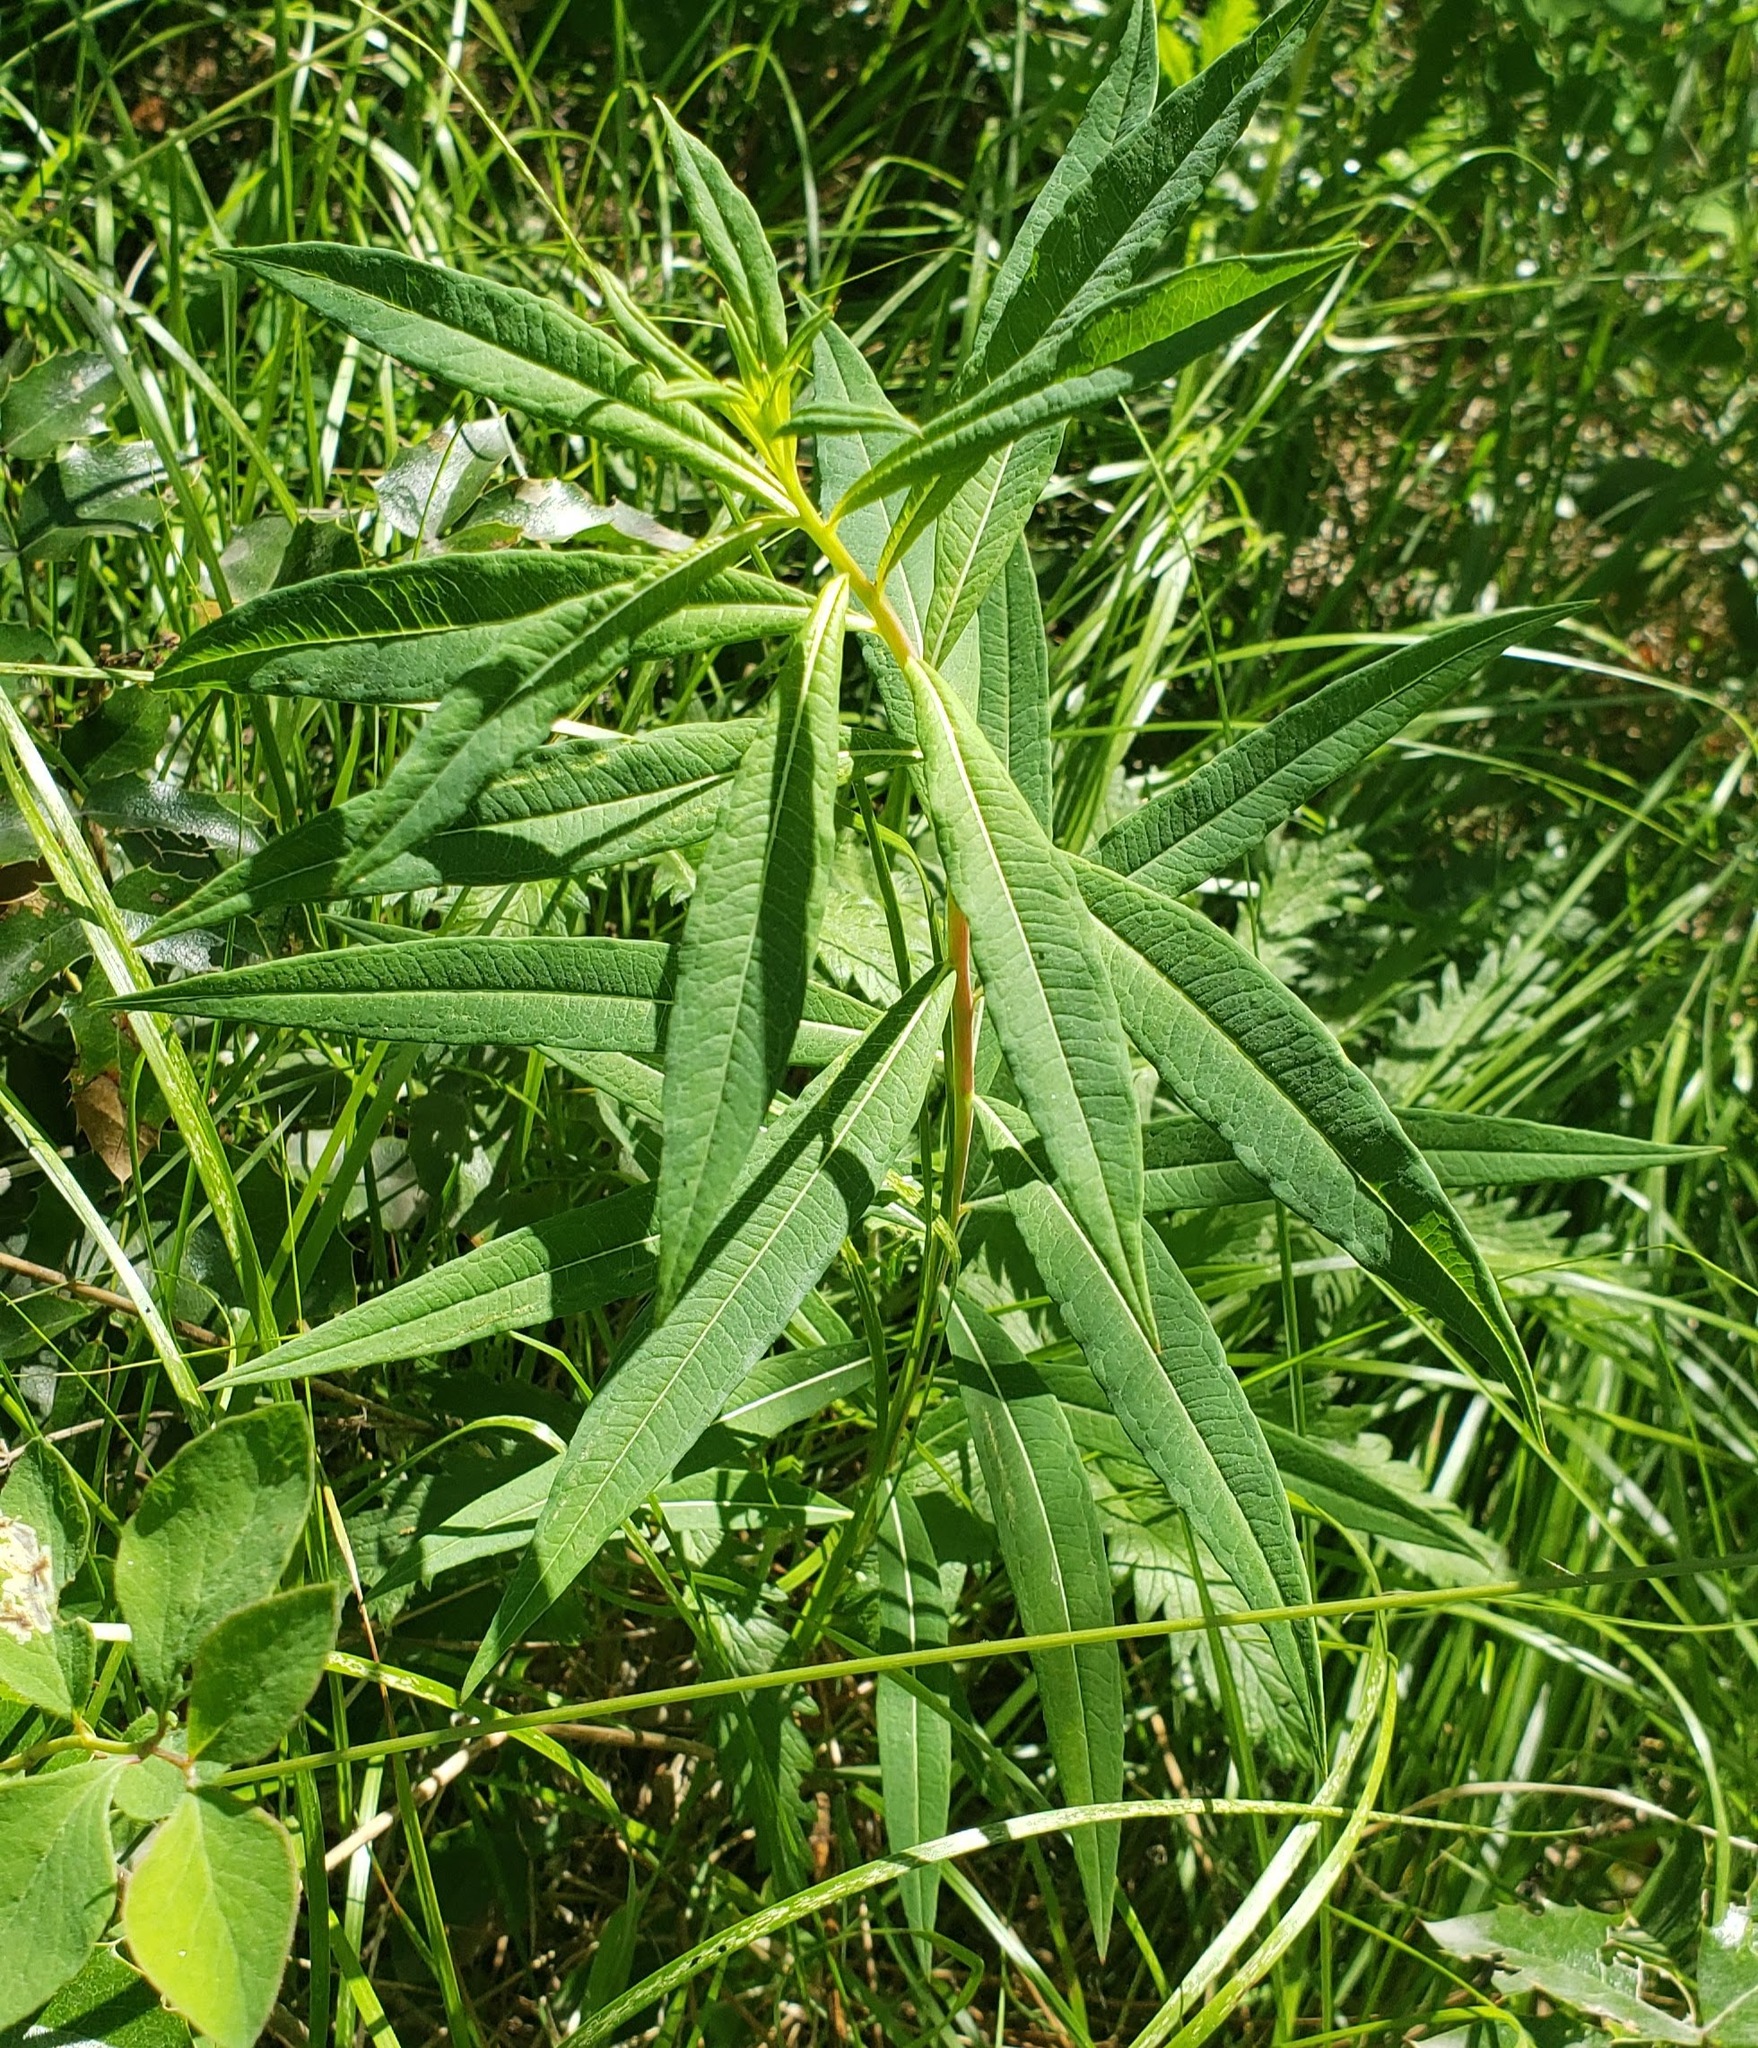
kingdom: Plantae
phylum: Tracheophyta
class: Magnoliopsida
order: Myrtales
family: Onagraceae
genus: Chamaenerion
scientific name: Chamaenerion angustifolium
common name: Fireweed
